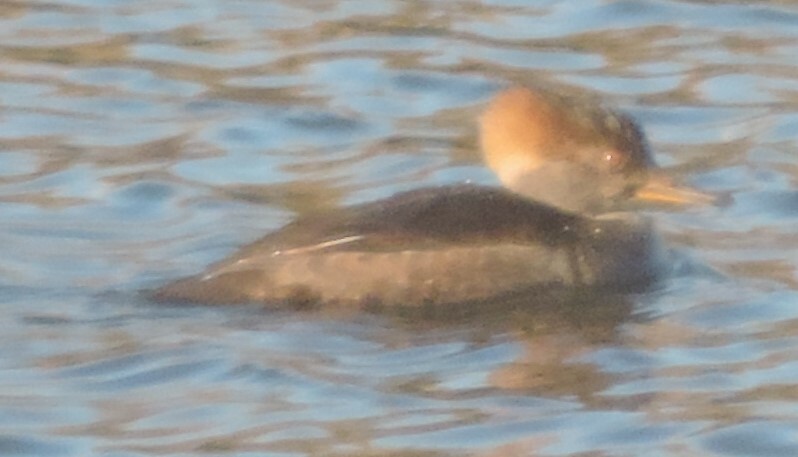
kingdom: Animalia
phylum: Chordata
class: Aves
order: Anseriformes
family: Anatidae
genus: Lophodytes
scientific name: Lophodytes cucullatus
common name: Hooded merganser
